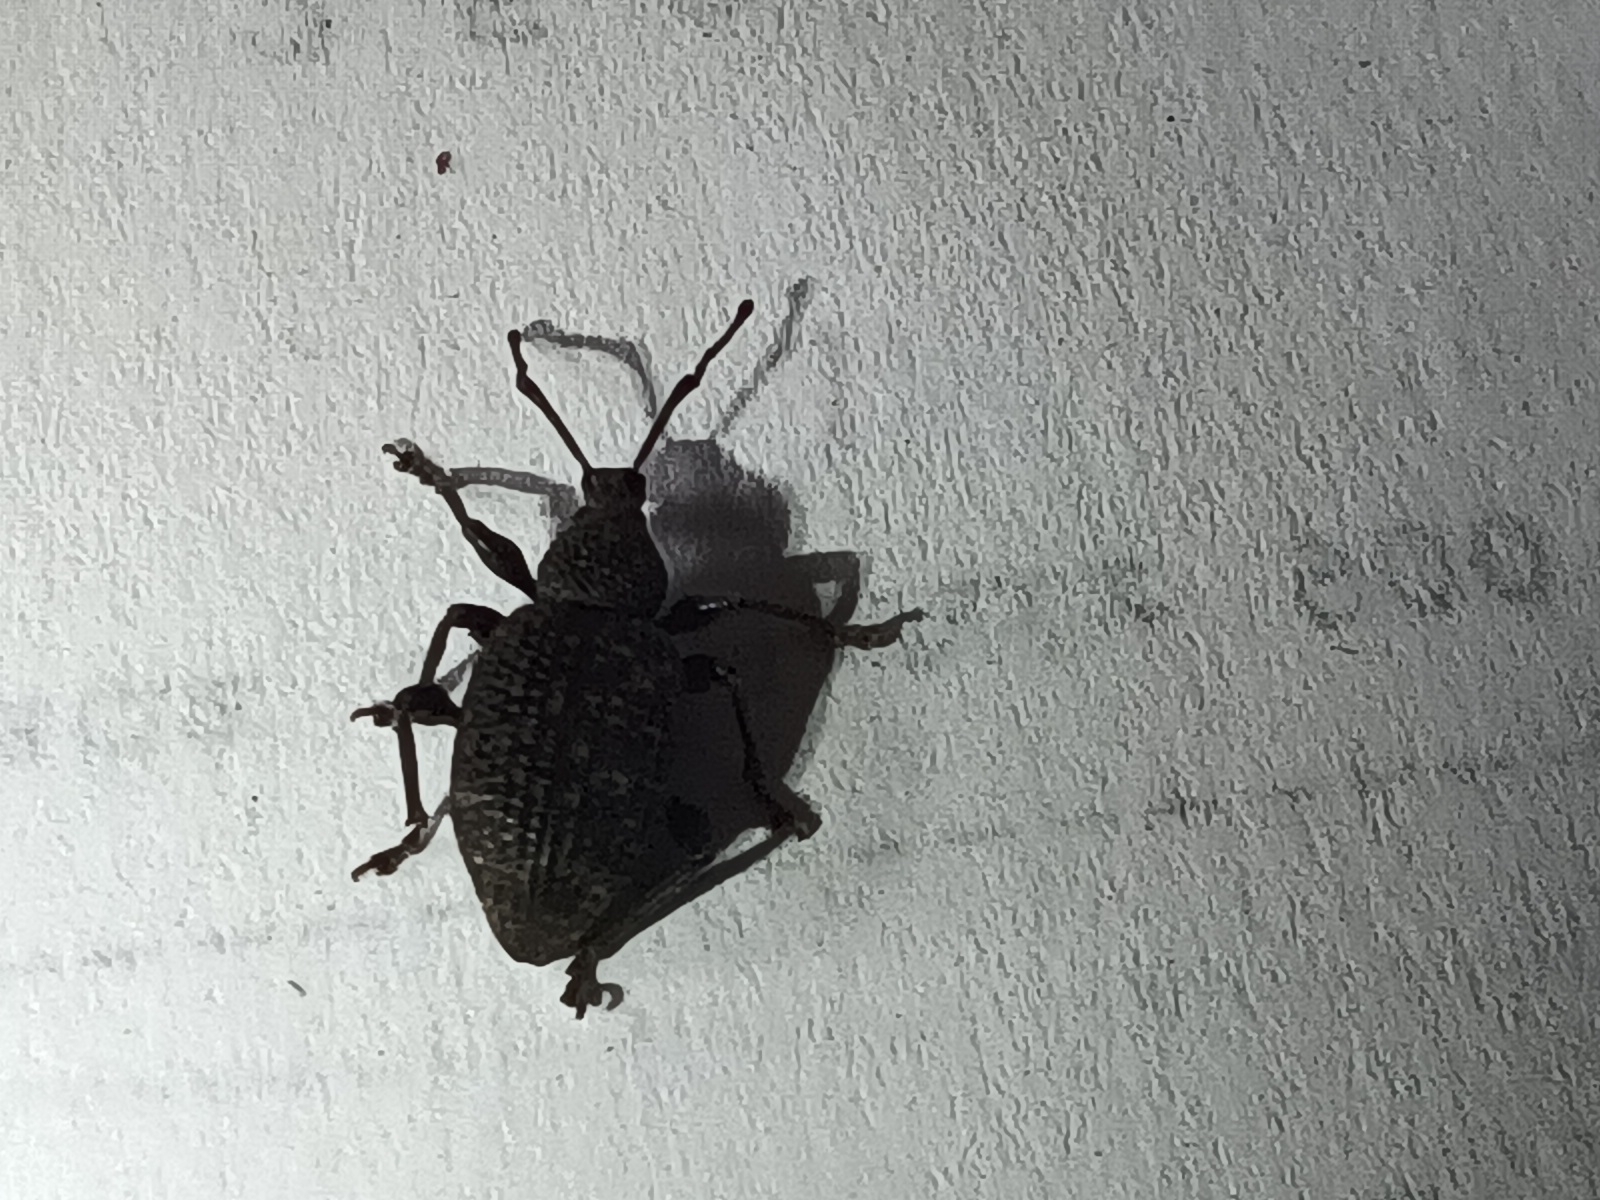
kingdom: Animalia
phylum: Arthropoda
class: Insecta
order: Coleoptera
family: Curculionidae
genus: Otiorhynchus
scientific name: Otiorhynchus sulcatus
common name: Black vine weevil
